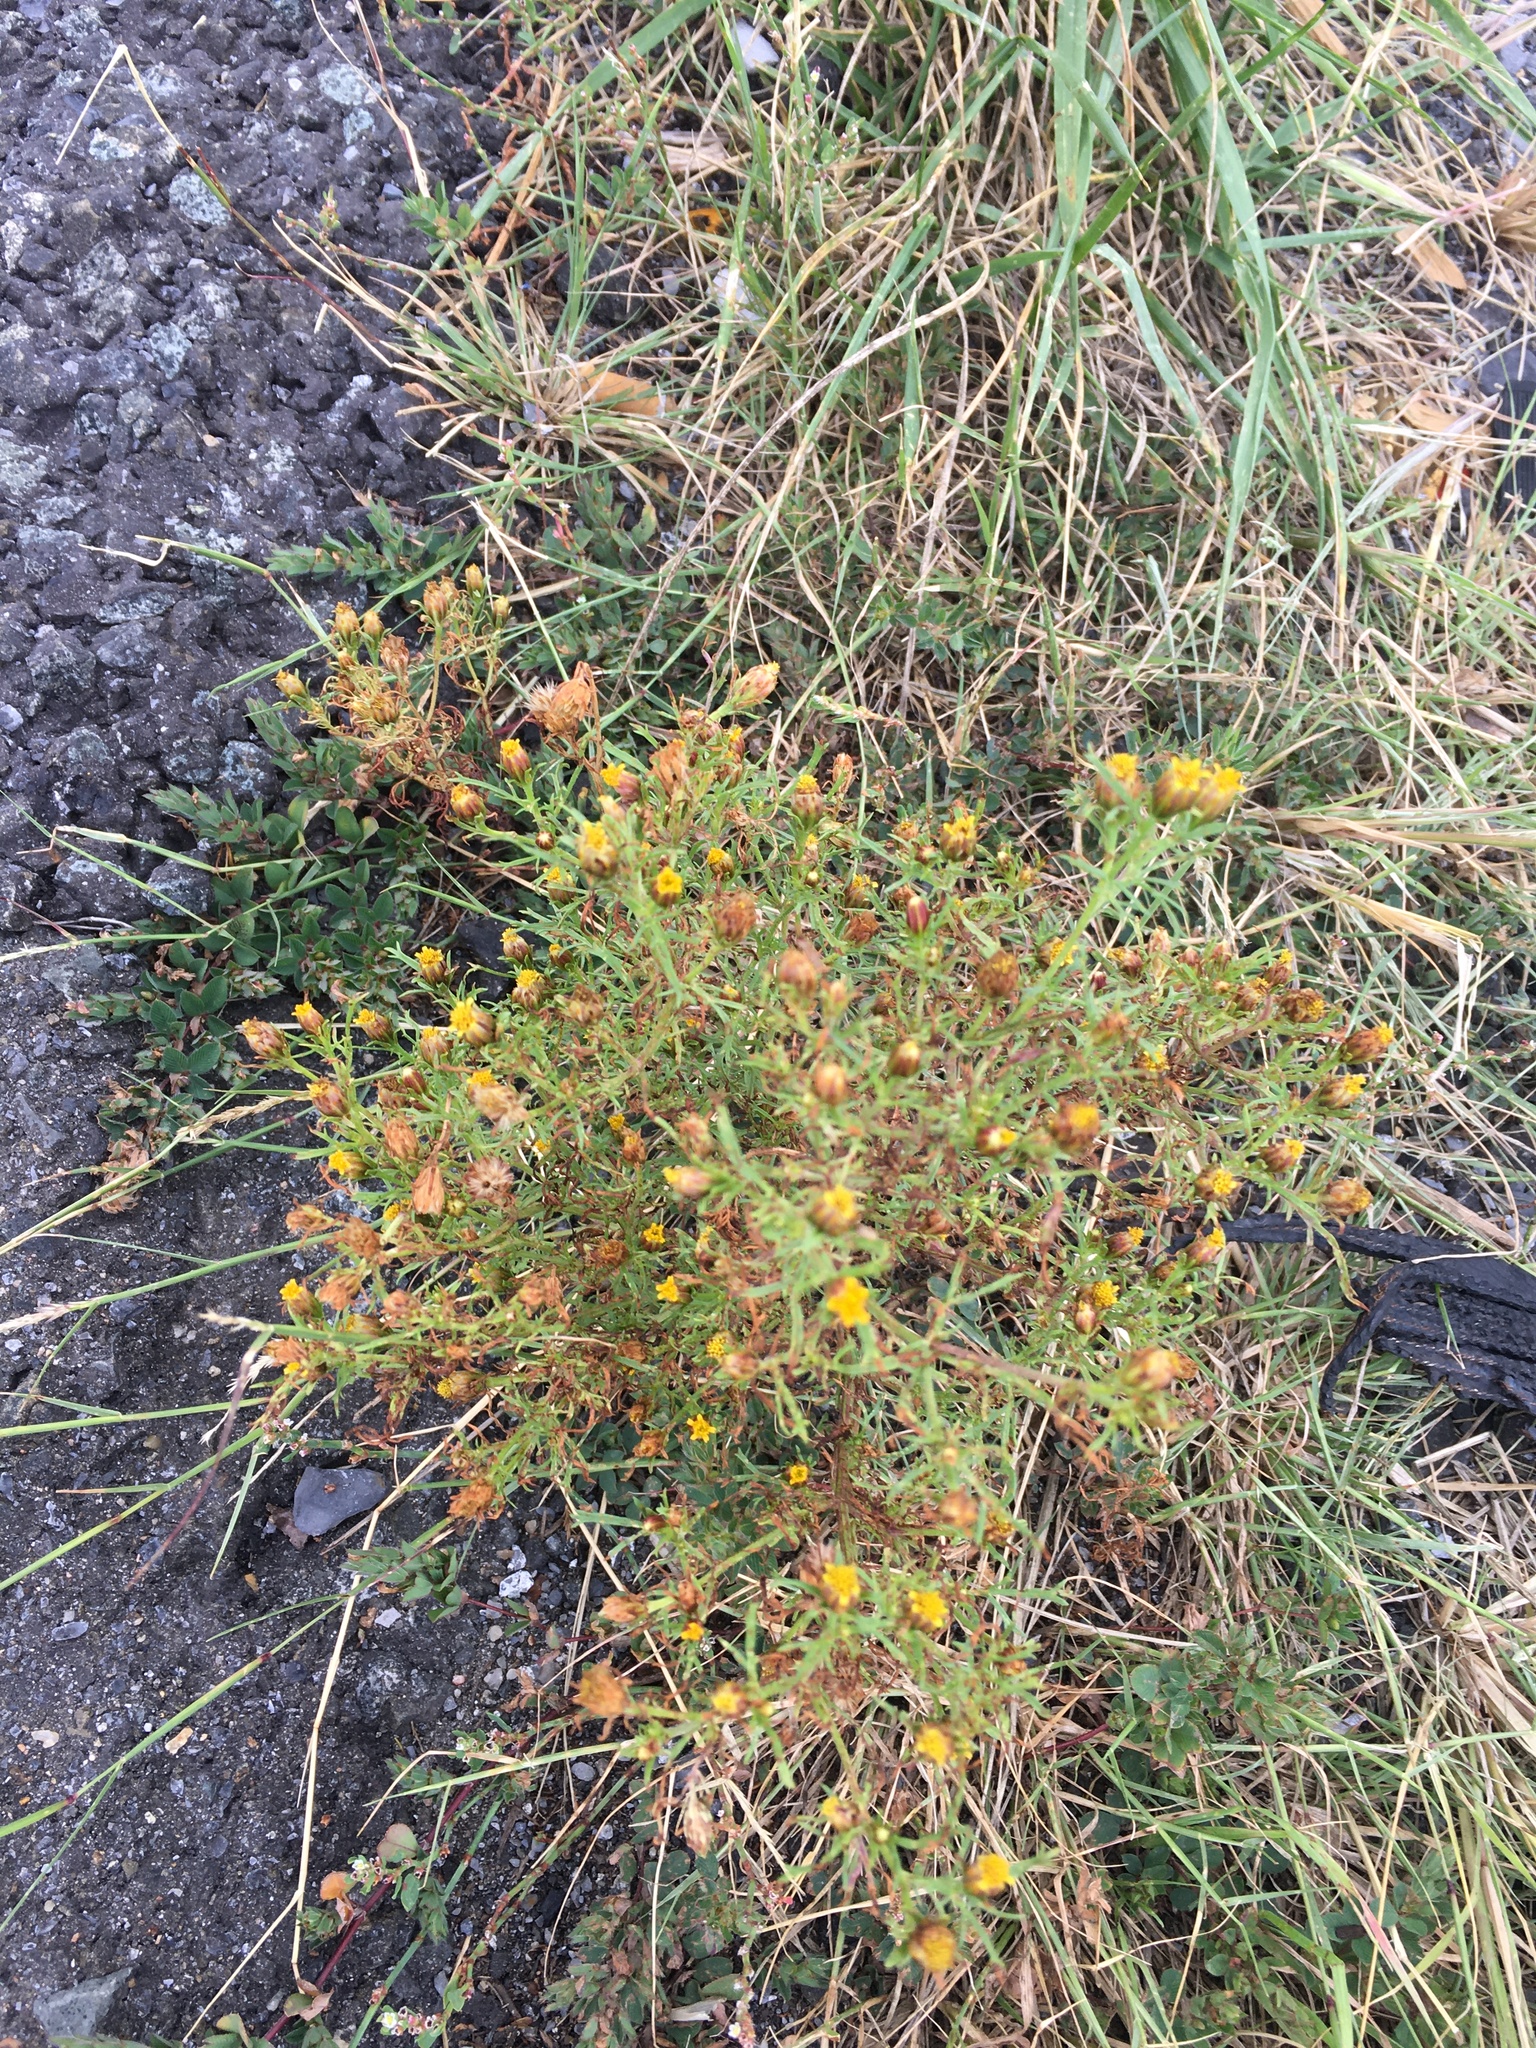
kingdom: Plantae
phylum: Tracheophyta
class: Magnoliopsida
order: Asterales
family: Asteraceae
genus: Dyssodia
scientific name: Dyssodia papposa
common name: Dogweed
